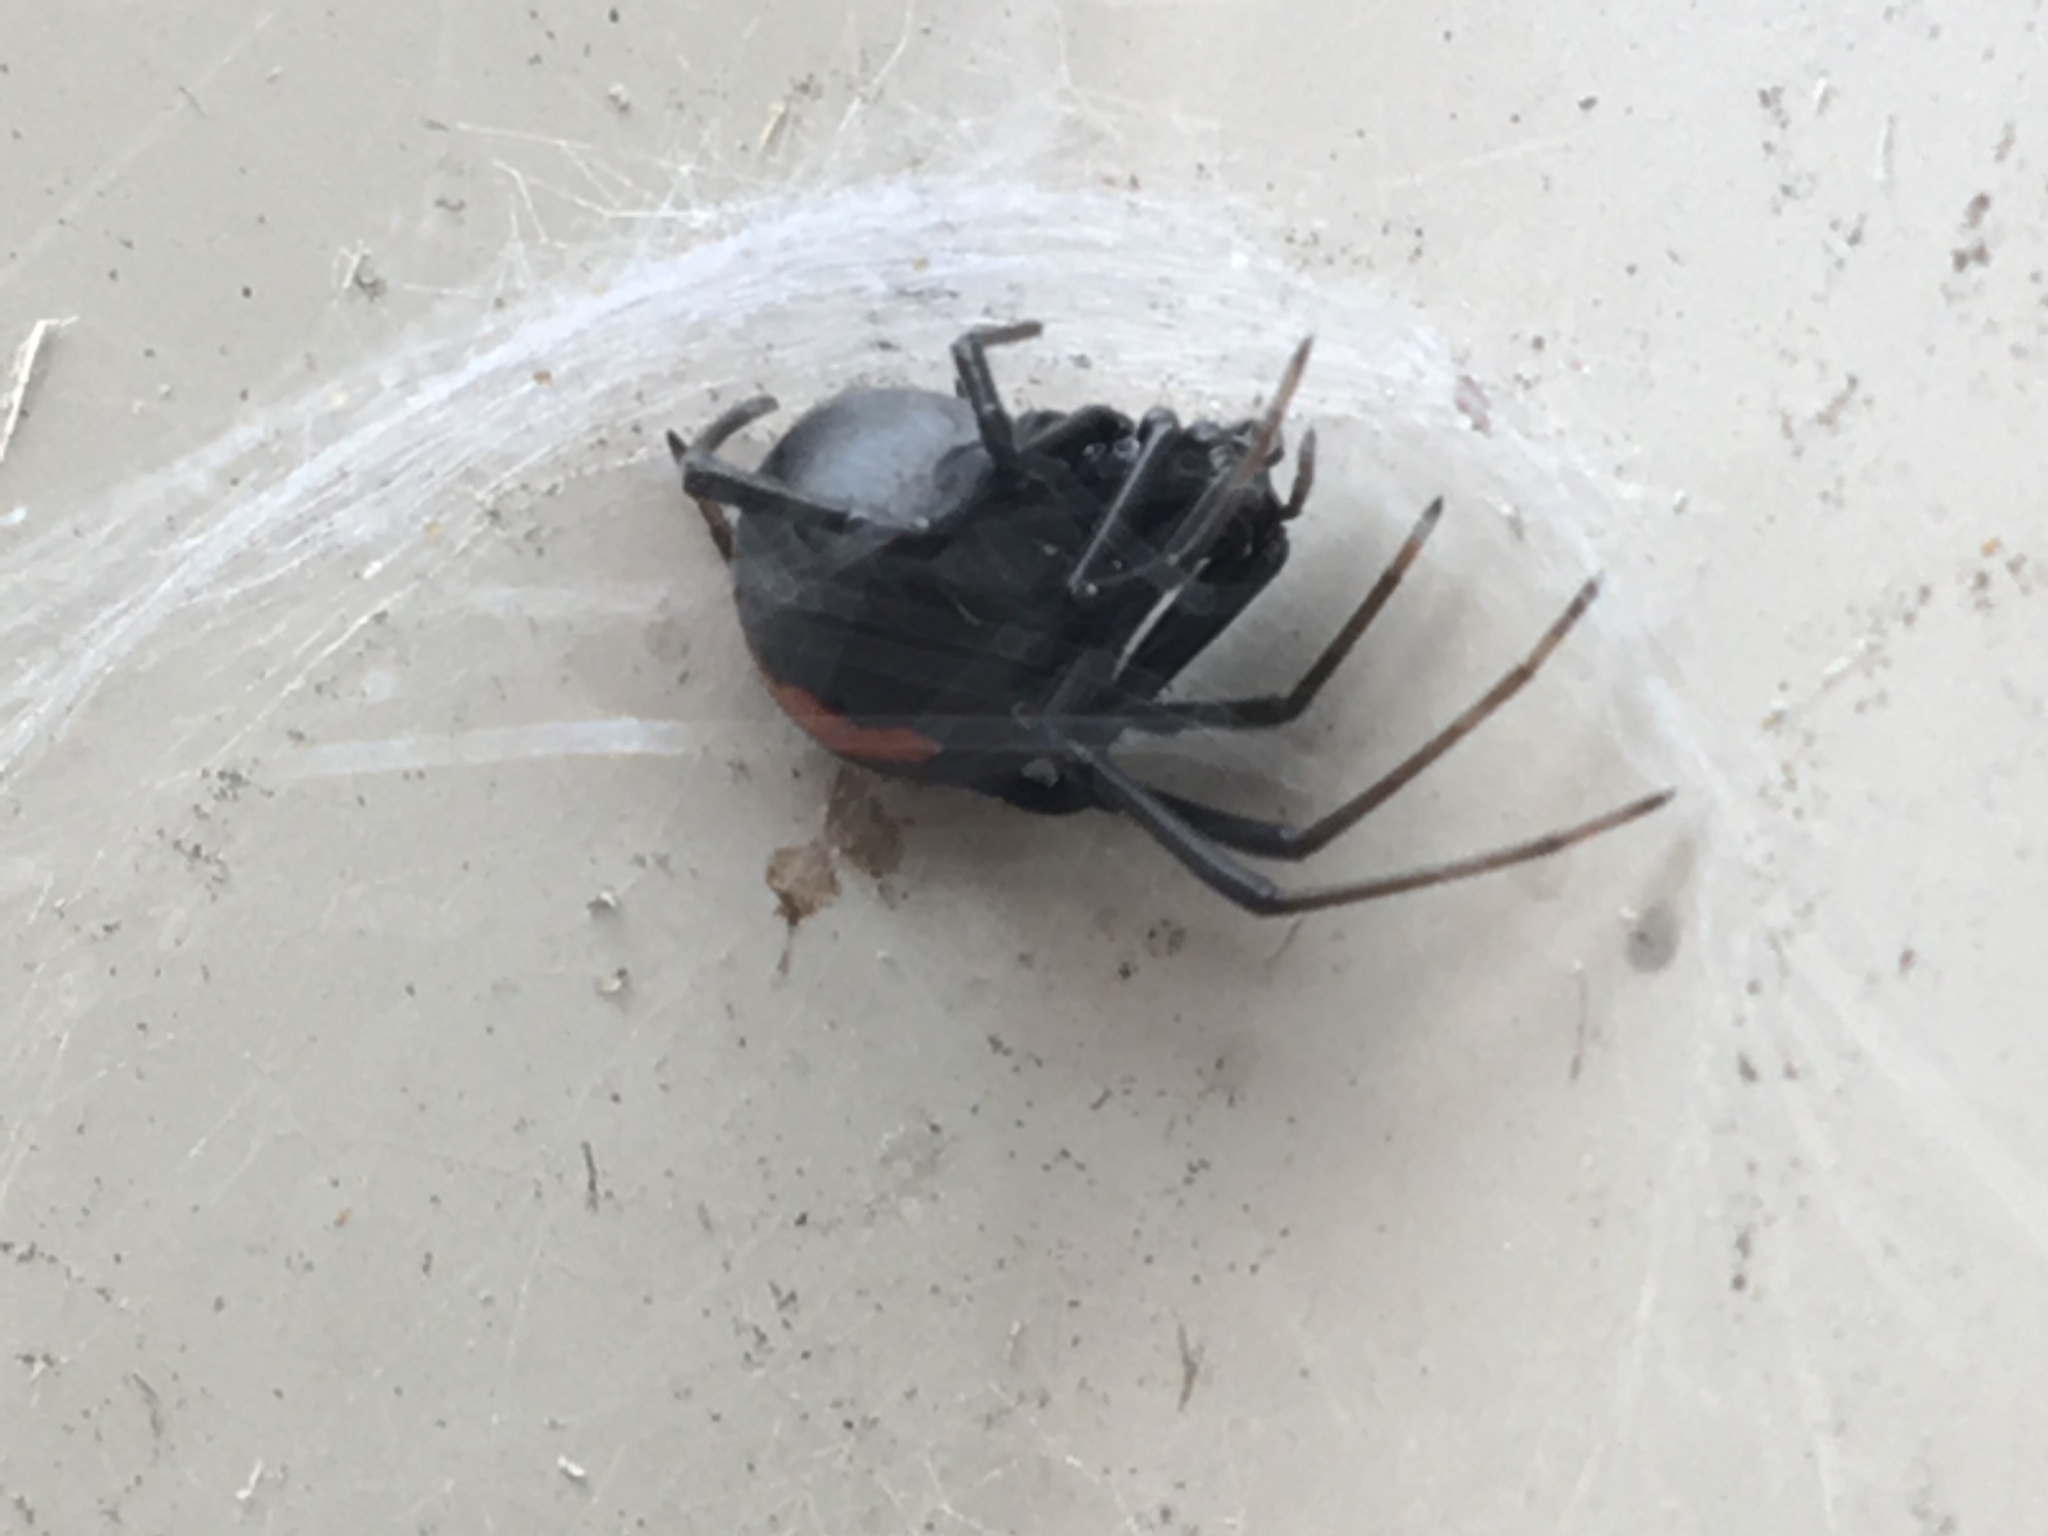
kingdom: Animalia
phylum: Arthropoda
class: Arachnida
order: Araneae
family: Theridiidae
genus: Latrodectus
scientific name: Latrodectus hasselti
